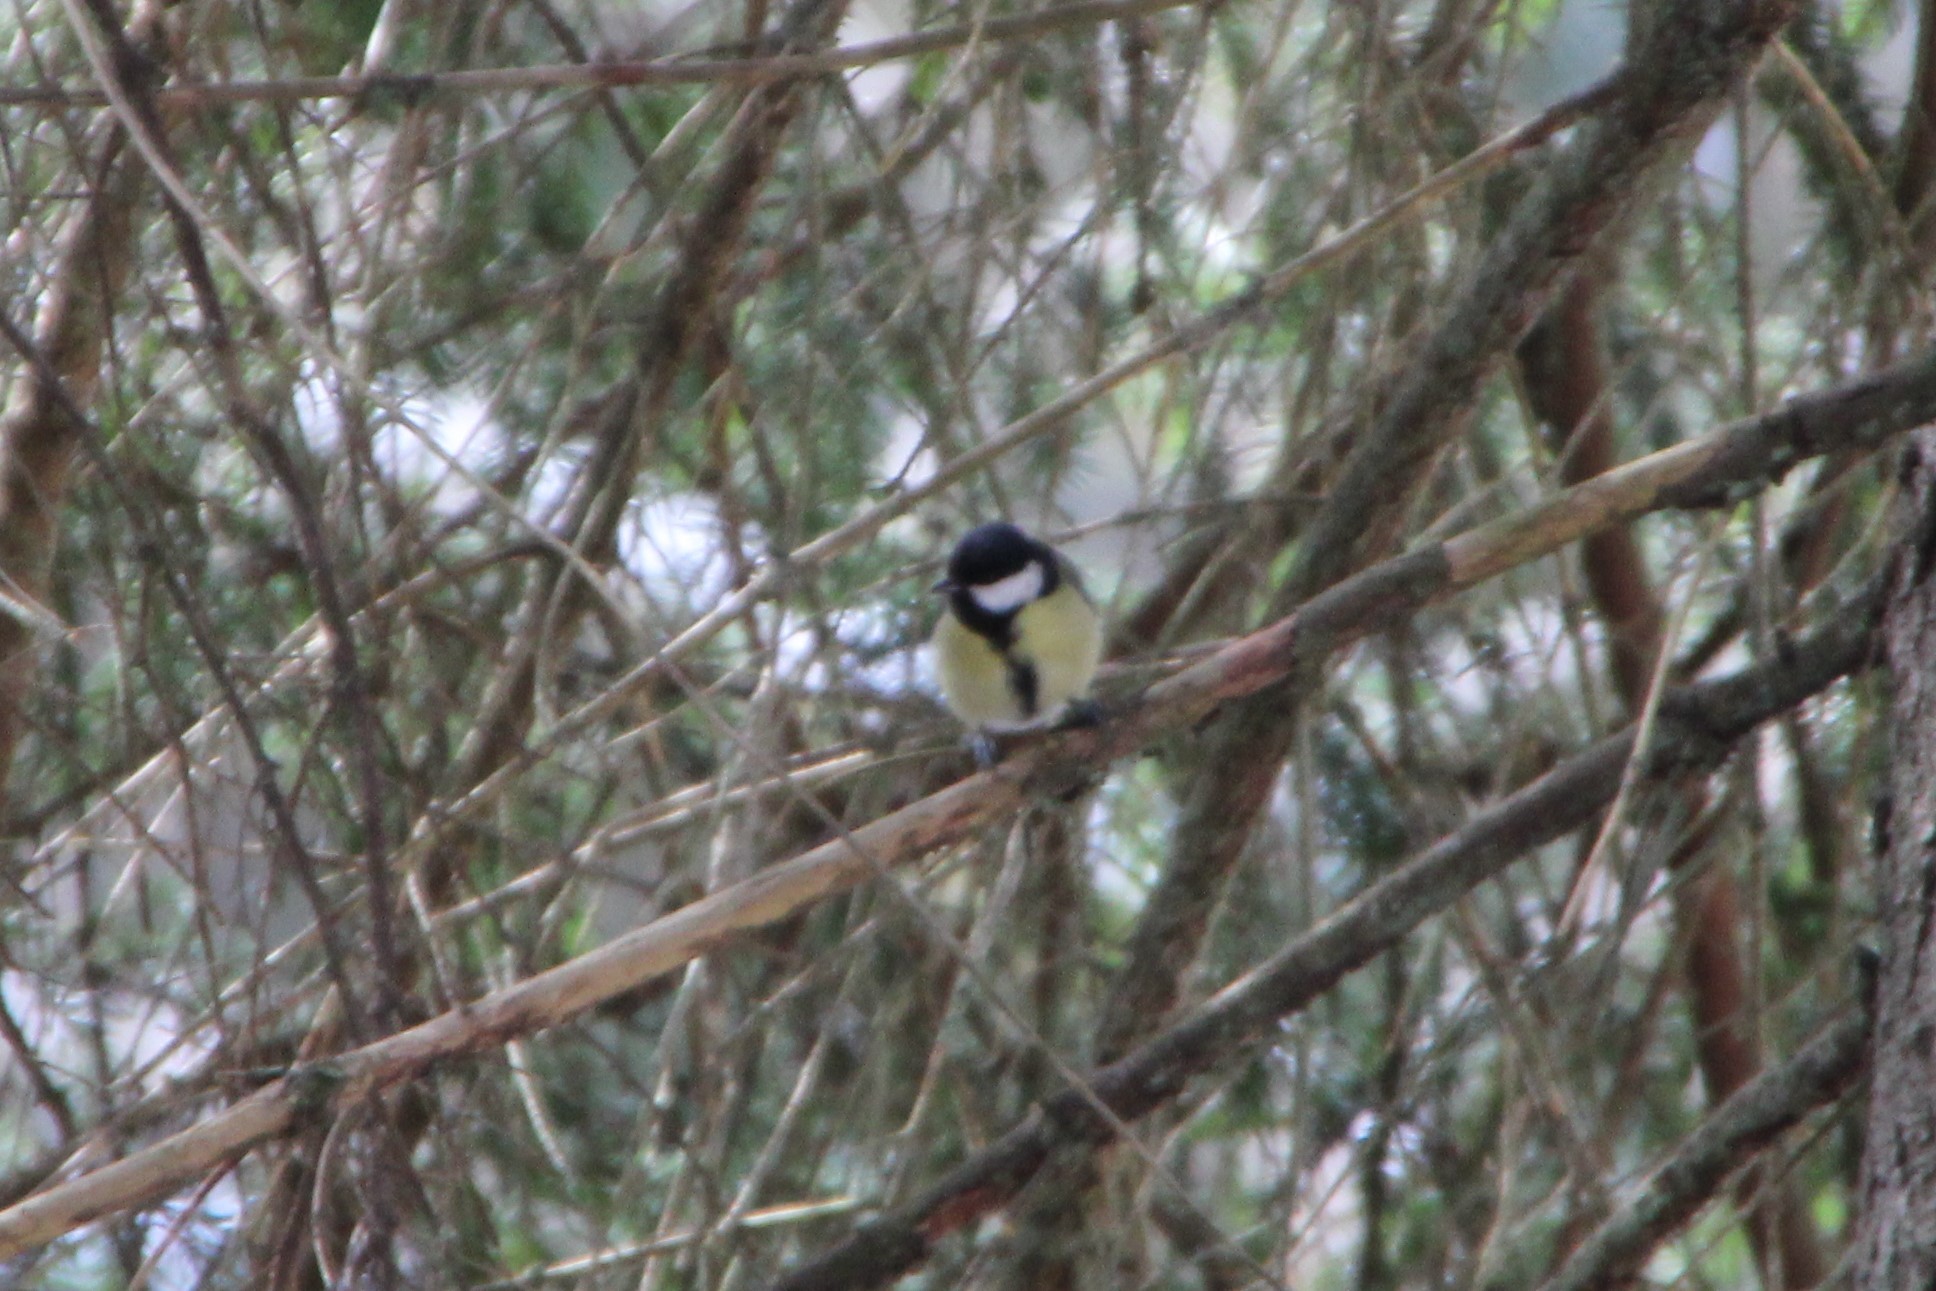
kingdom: Animalia
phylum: Chordata
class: Aves
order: Passeriformes
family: Paridae
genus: Parus
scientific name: Parus major
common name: Great tit
